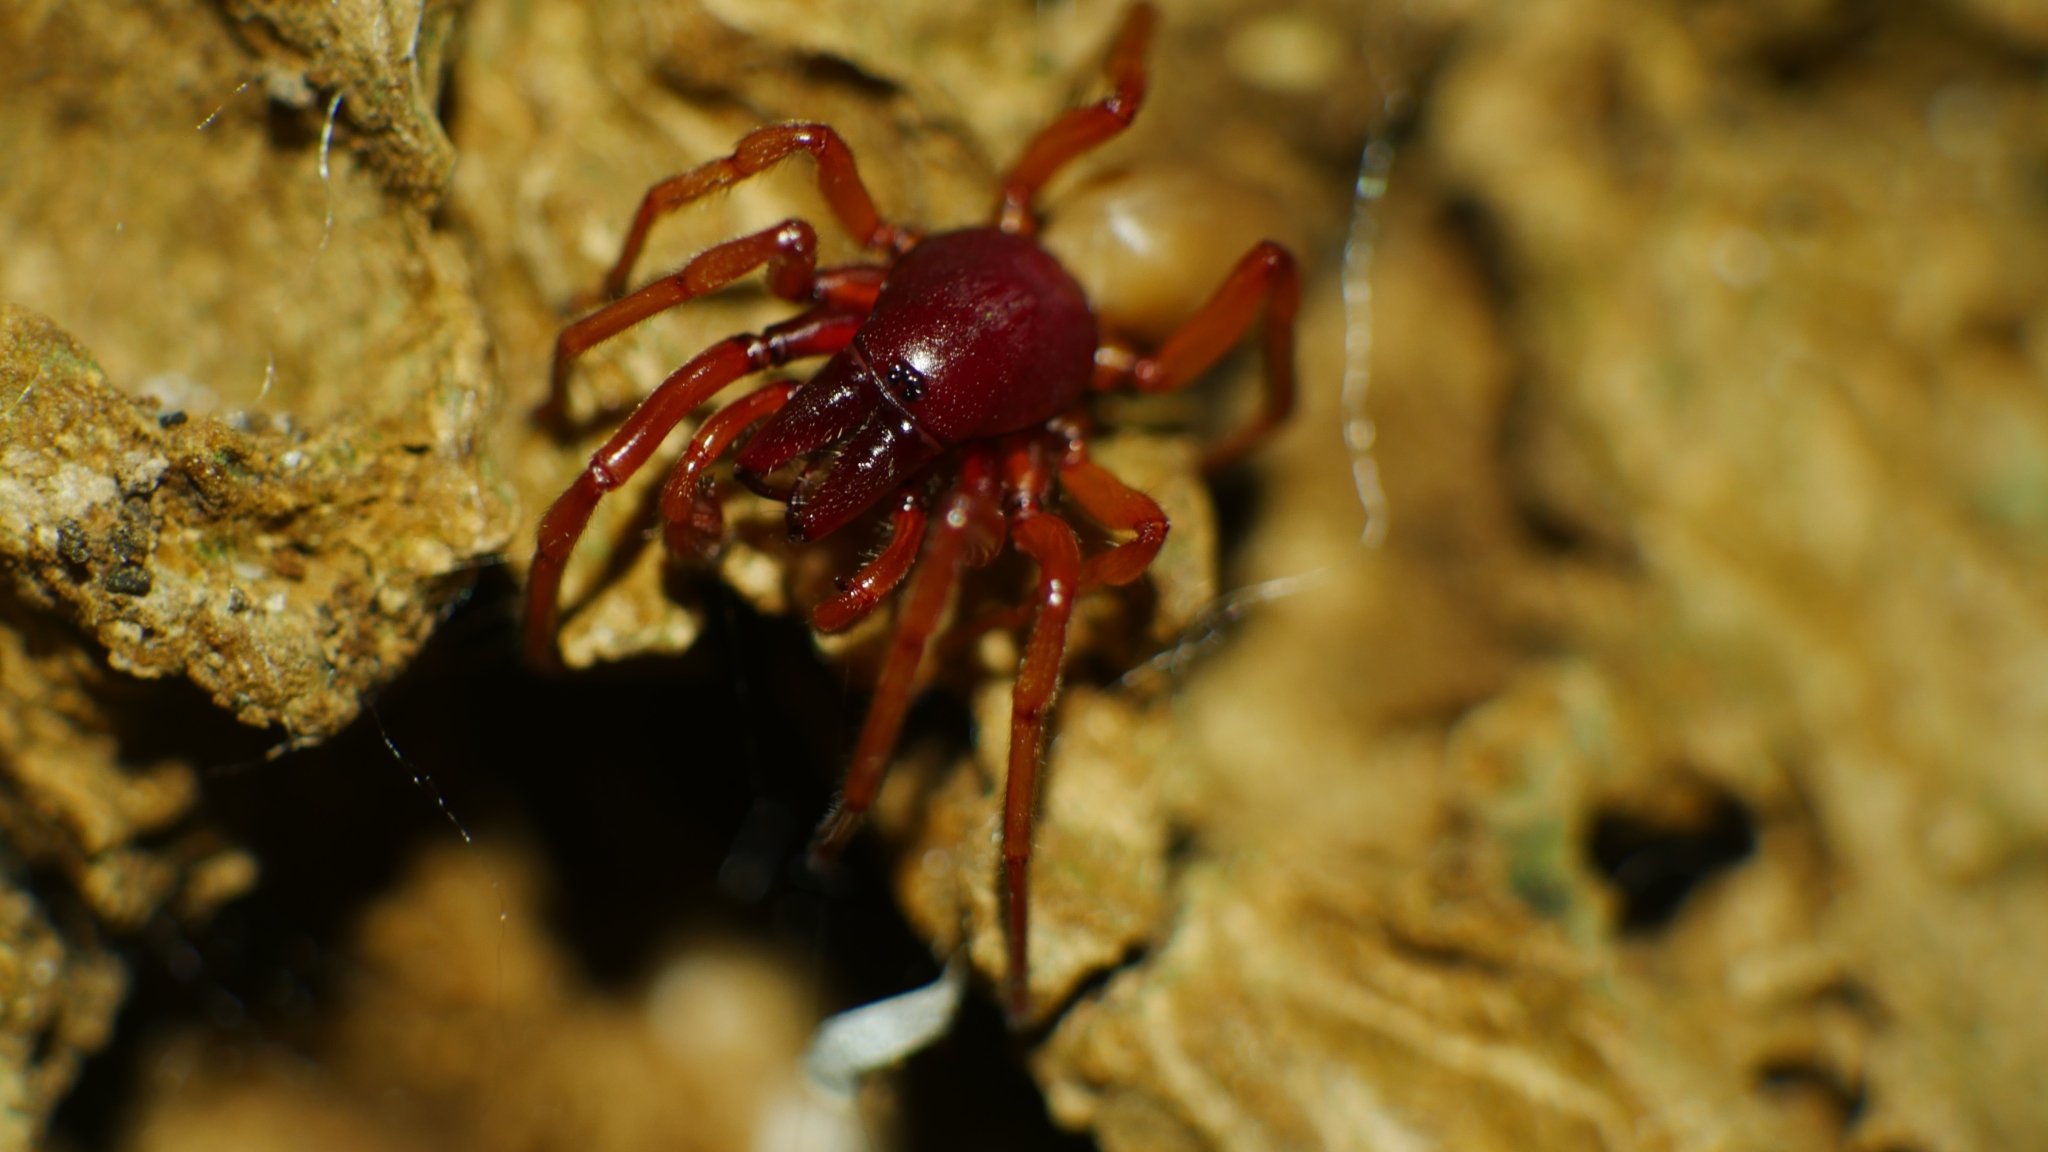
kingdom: Animalia
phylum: Arthropoda
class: Arachnida
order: Araneae
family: Dysderidae
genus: Dysdera
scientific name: Dysdera crocata
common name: Woodlouse spider
